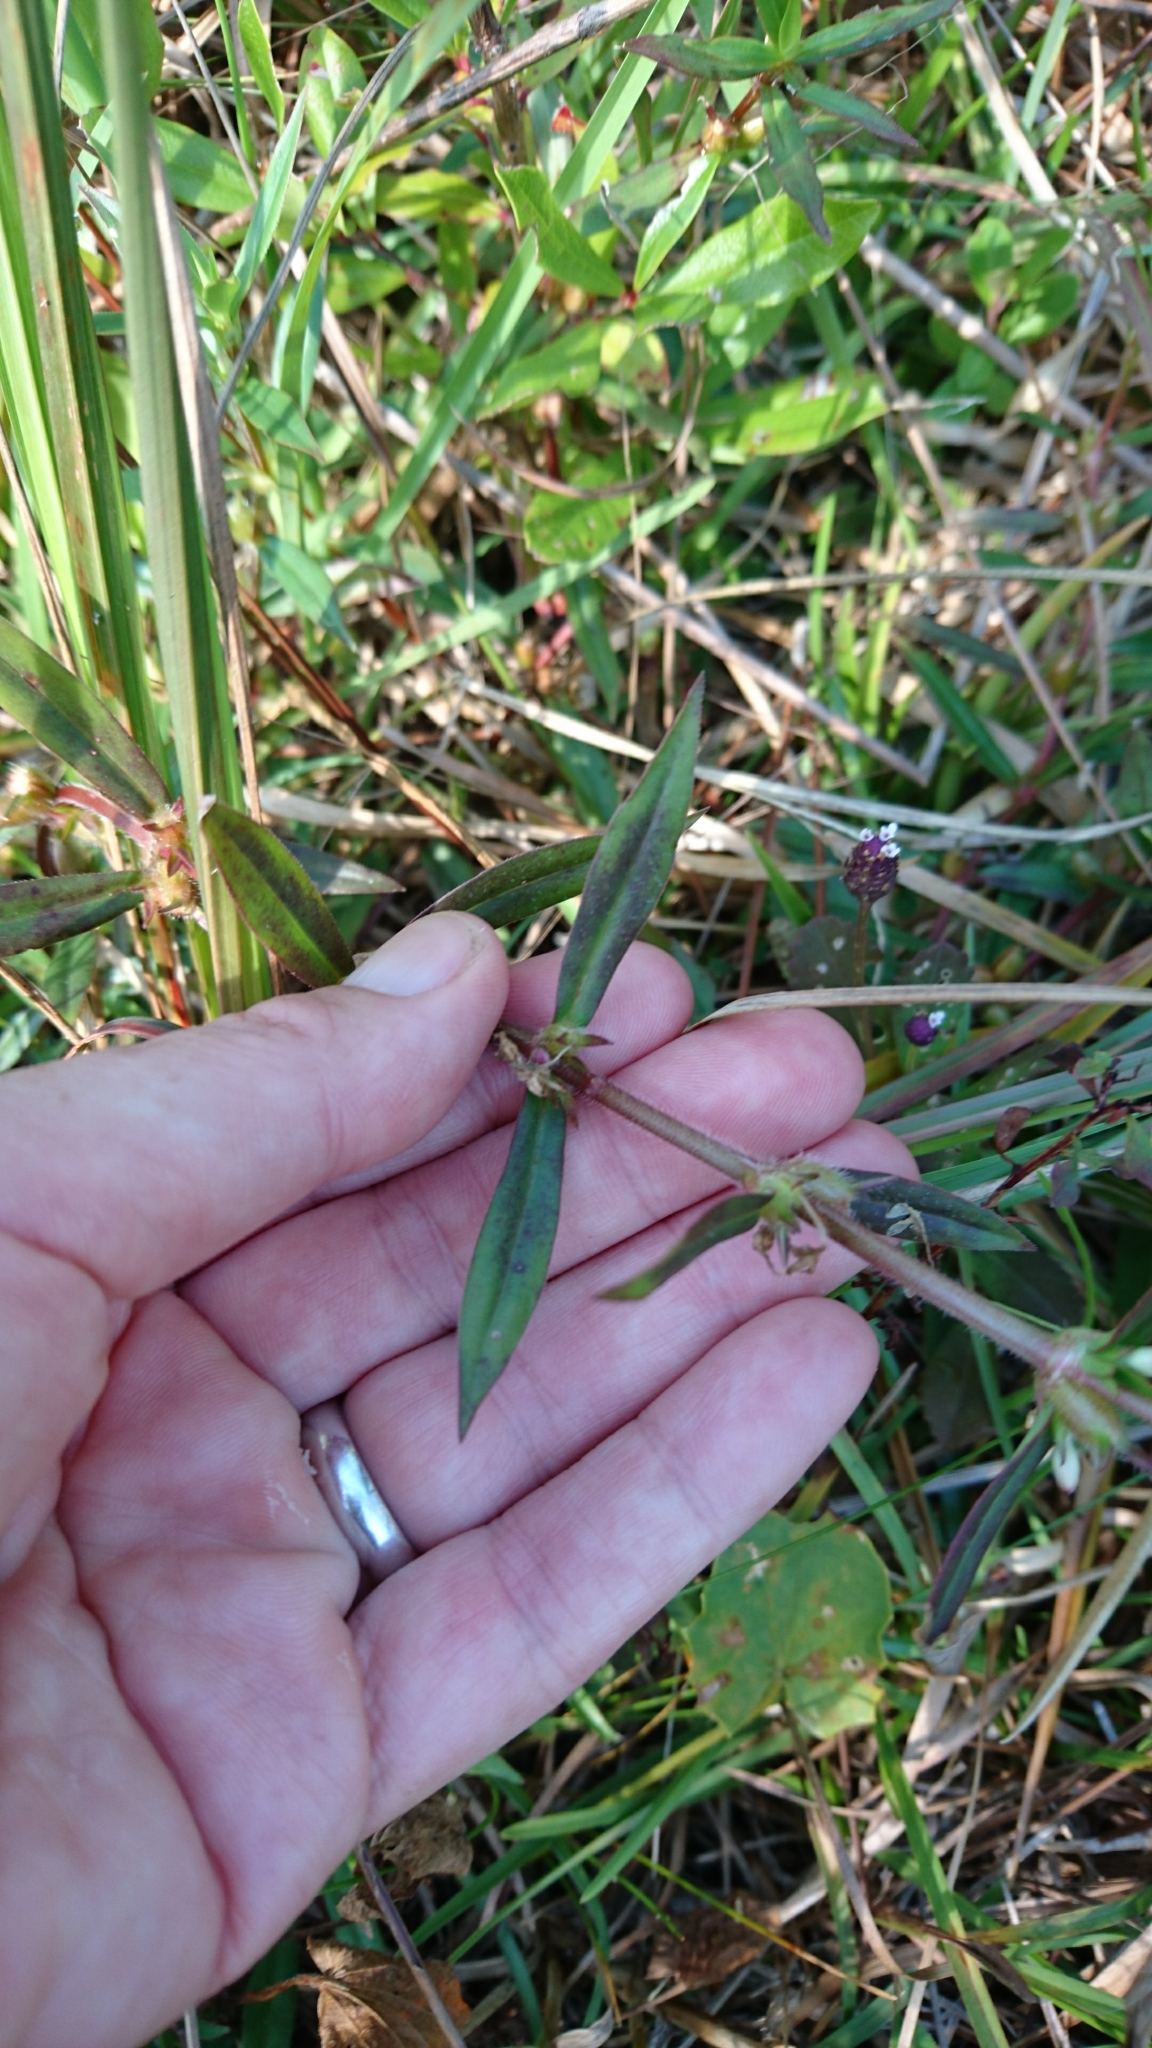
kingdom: Plantae
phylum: Tracheophyta
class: Magnoliopsida
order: Gentianales
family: Rubiaceae
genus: Diodia
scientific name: Diodia virginiana
